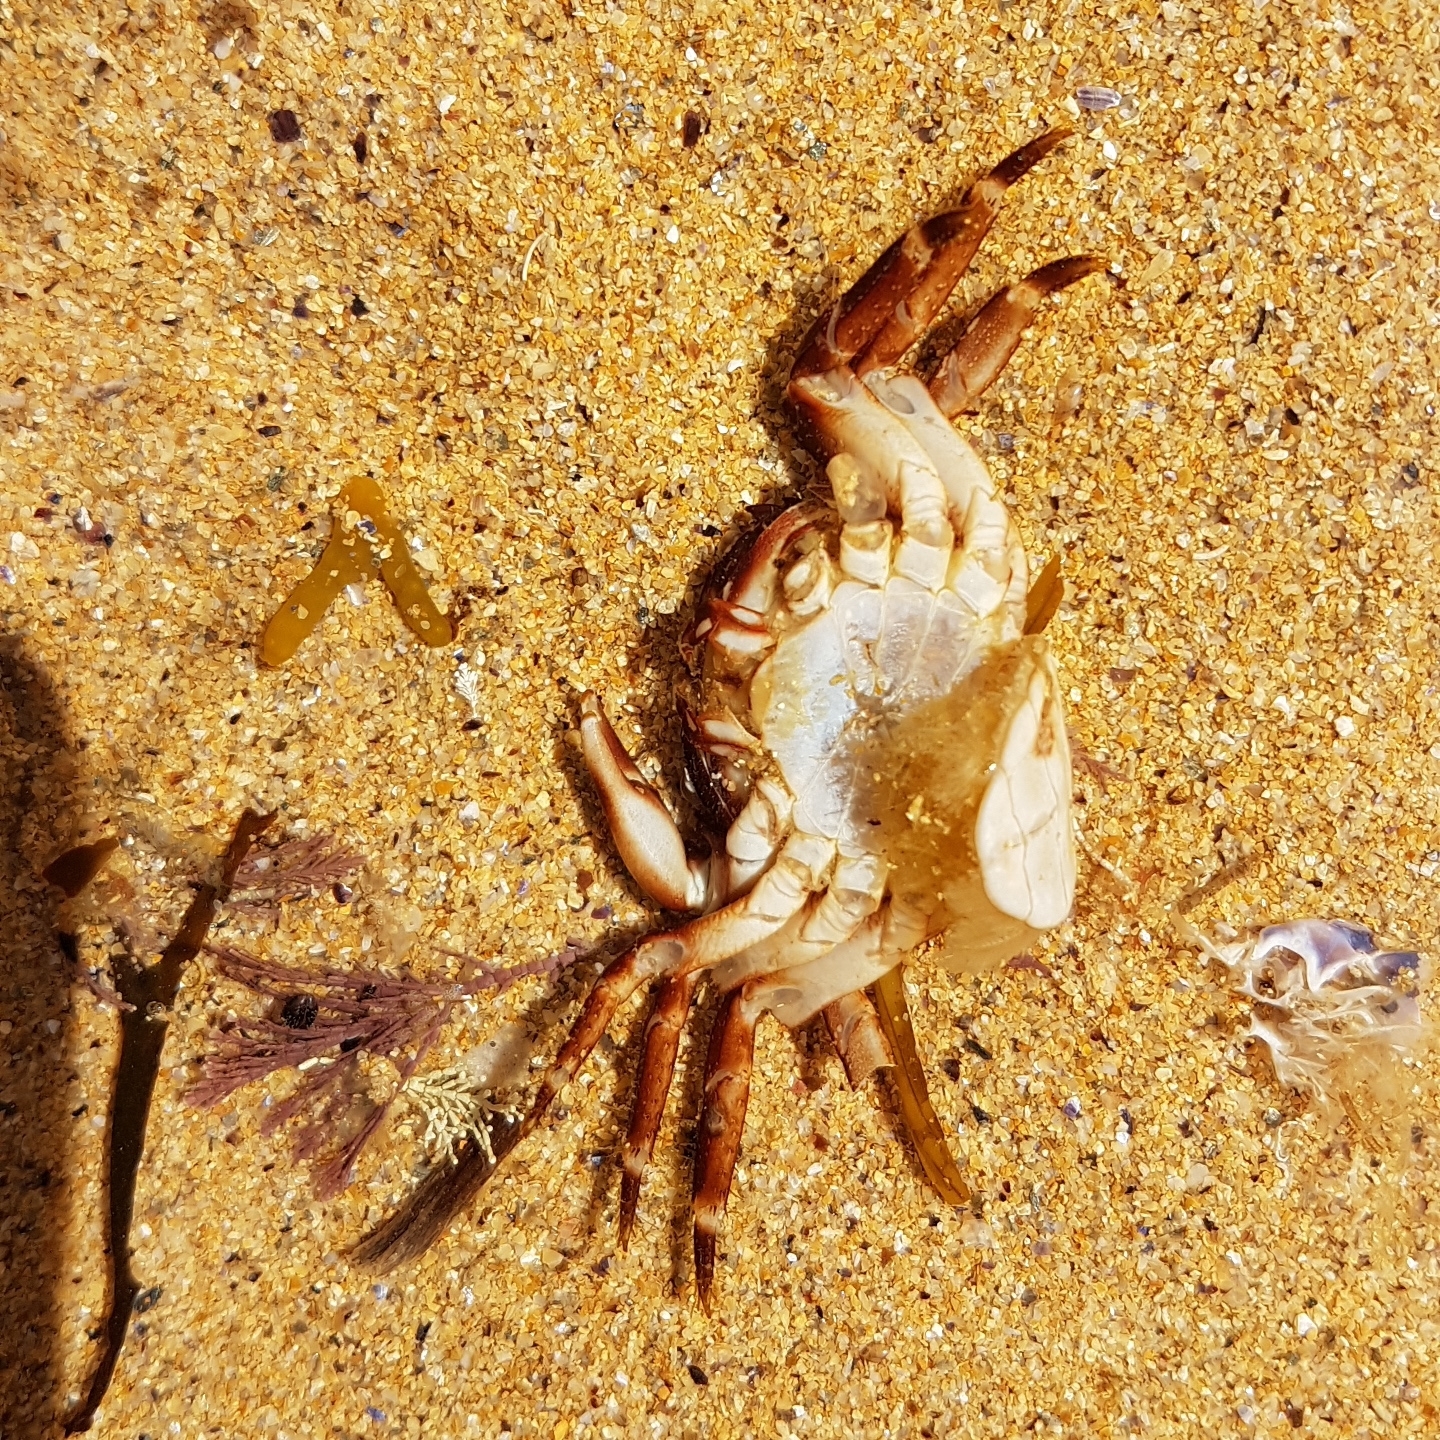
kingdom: Animalia
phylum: Arthropoda
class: Malacostraca
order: Decapoda
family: Grapsidae
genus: Pachygrapsus
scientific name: Pachygrapsus marmoratus
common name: Marbled rock crab
